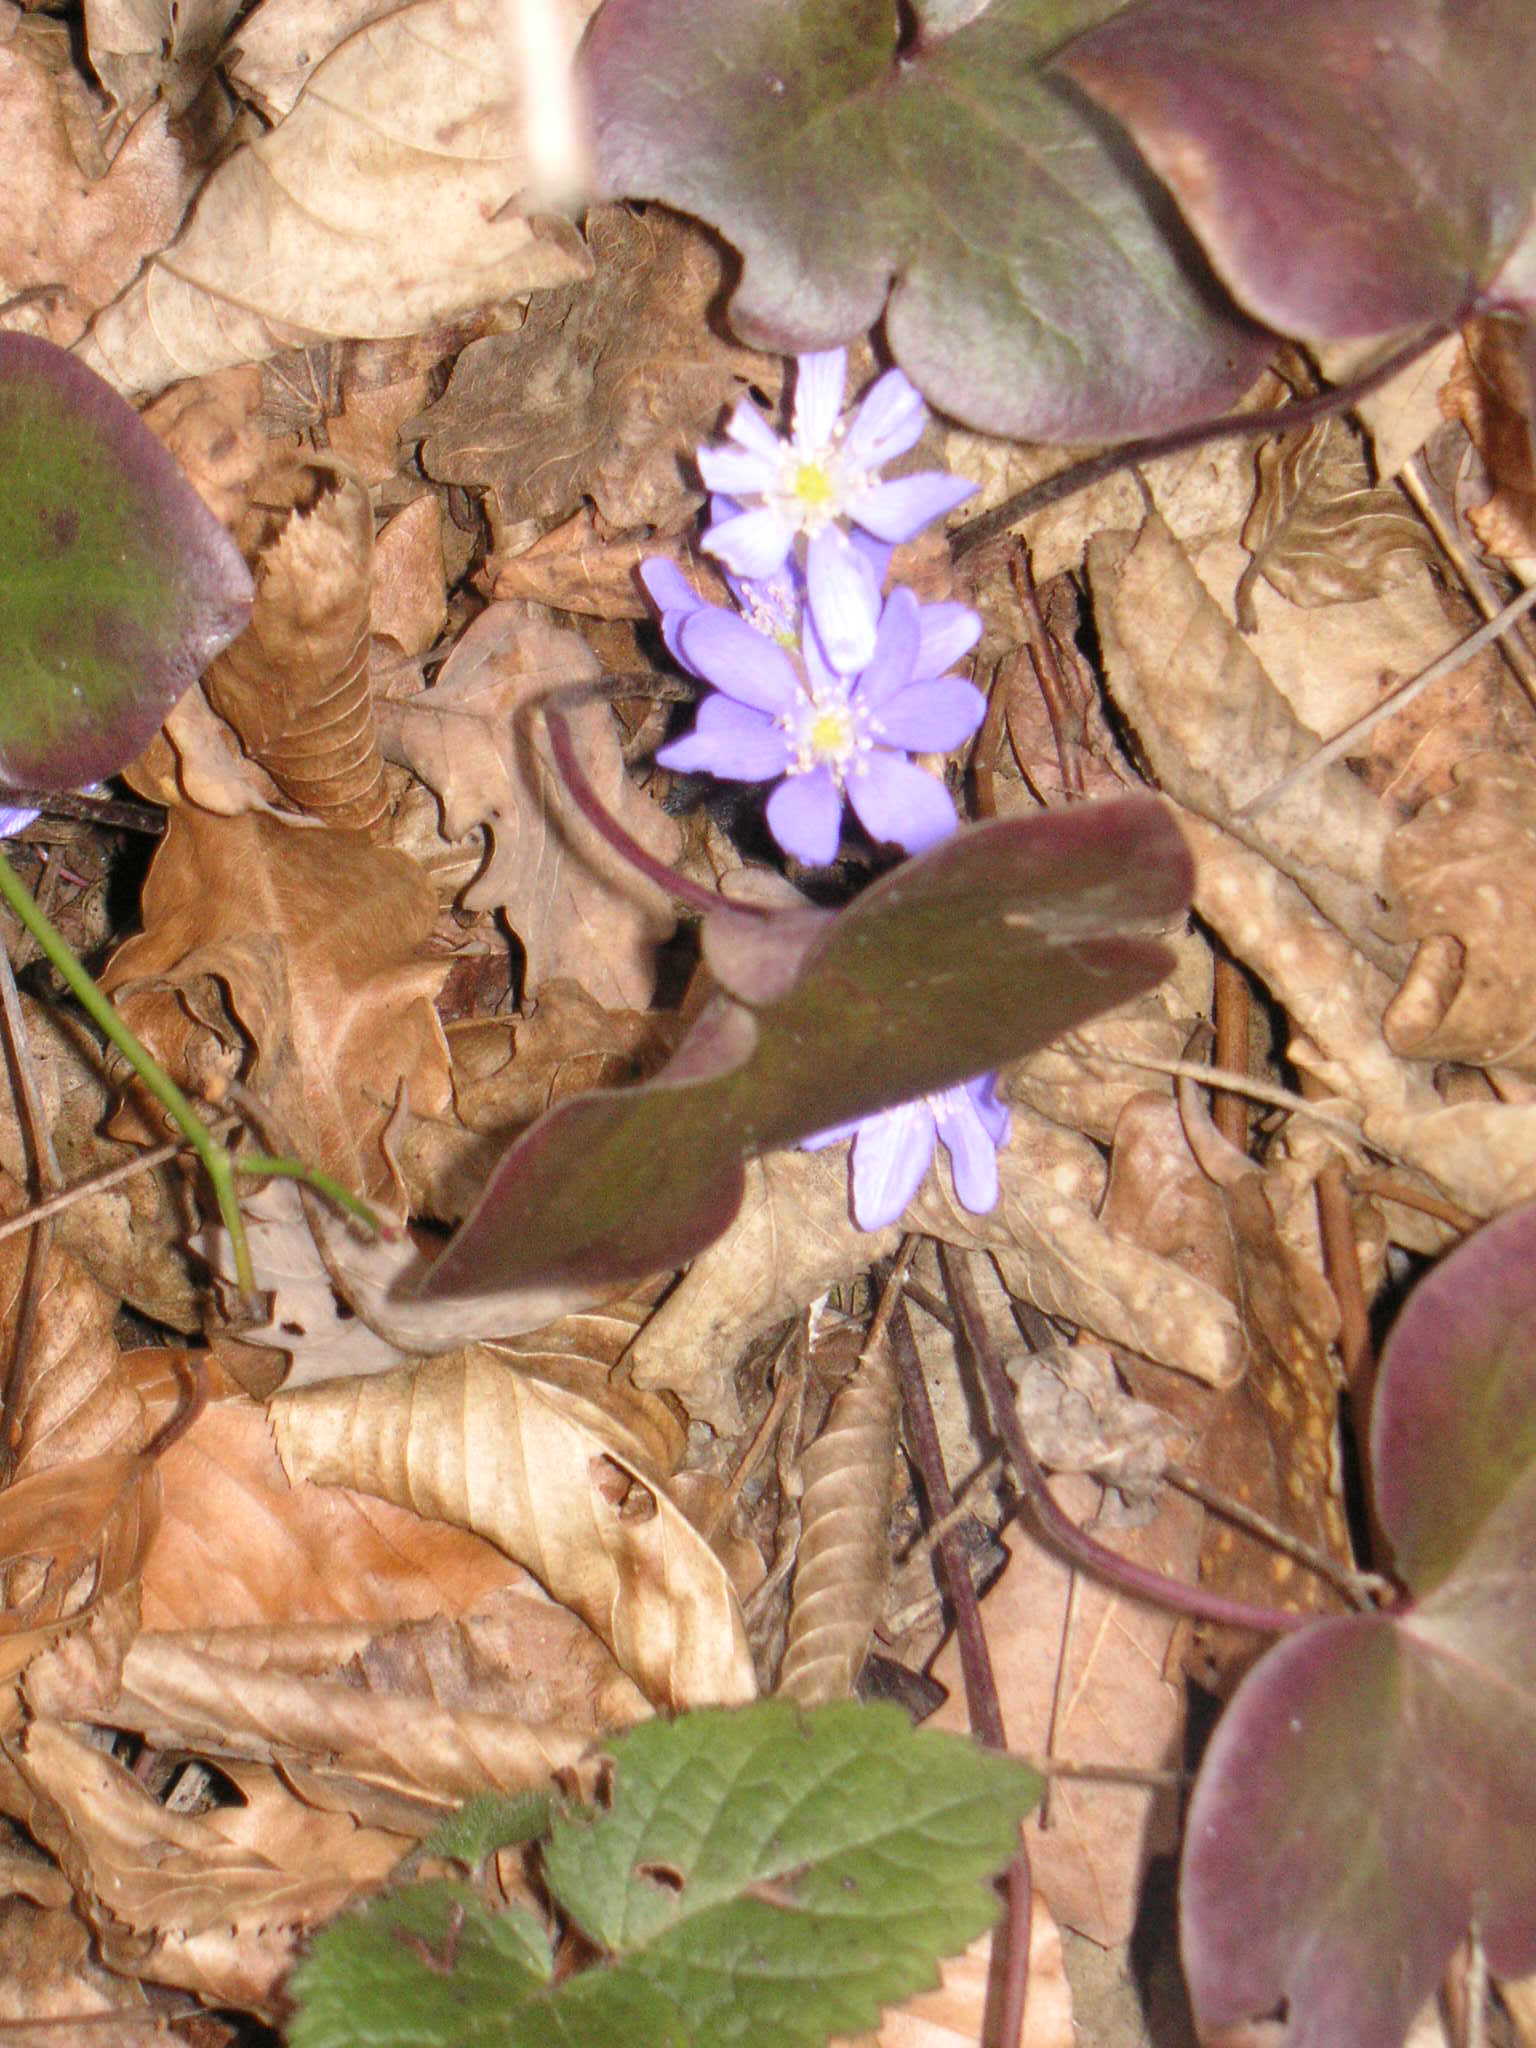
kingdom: Plantae
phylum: Tracheophyta
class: Magnoliopsida
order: Ranunculales
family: Ranunculaceae
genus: Hepatica
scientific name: Hepatica nobilis
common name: Liverleaf
